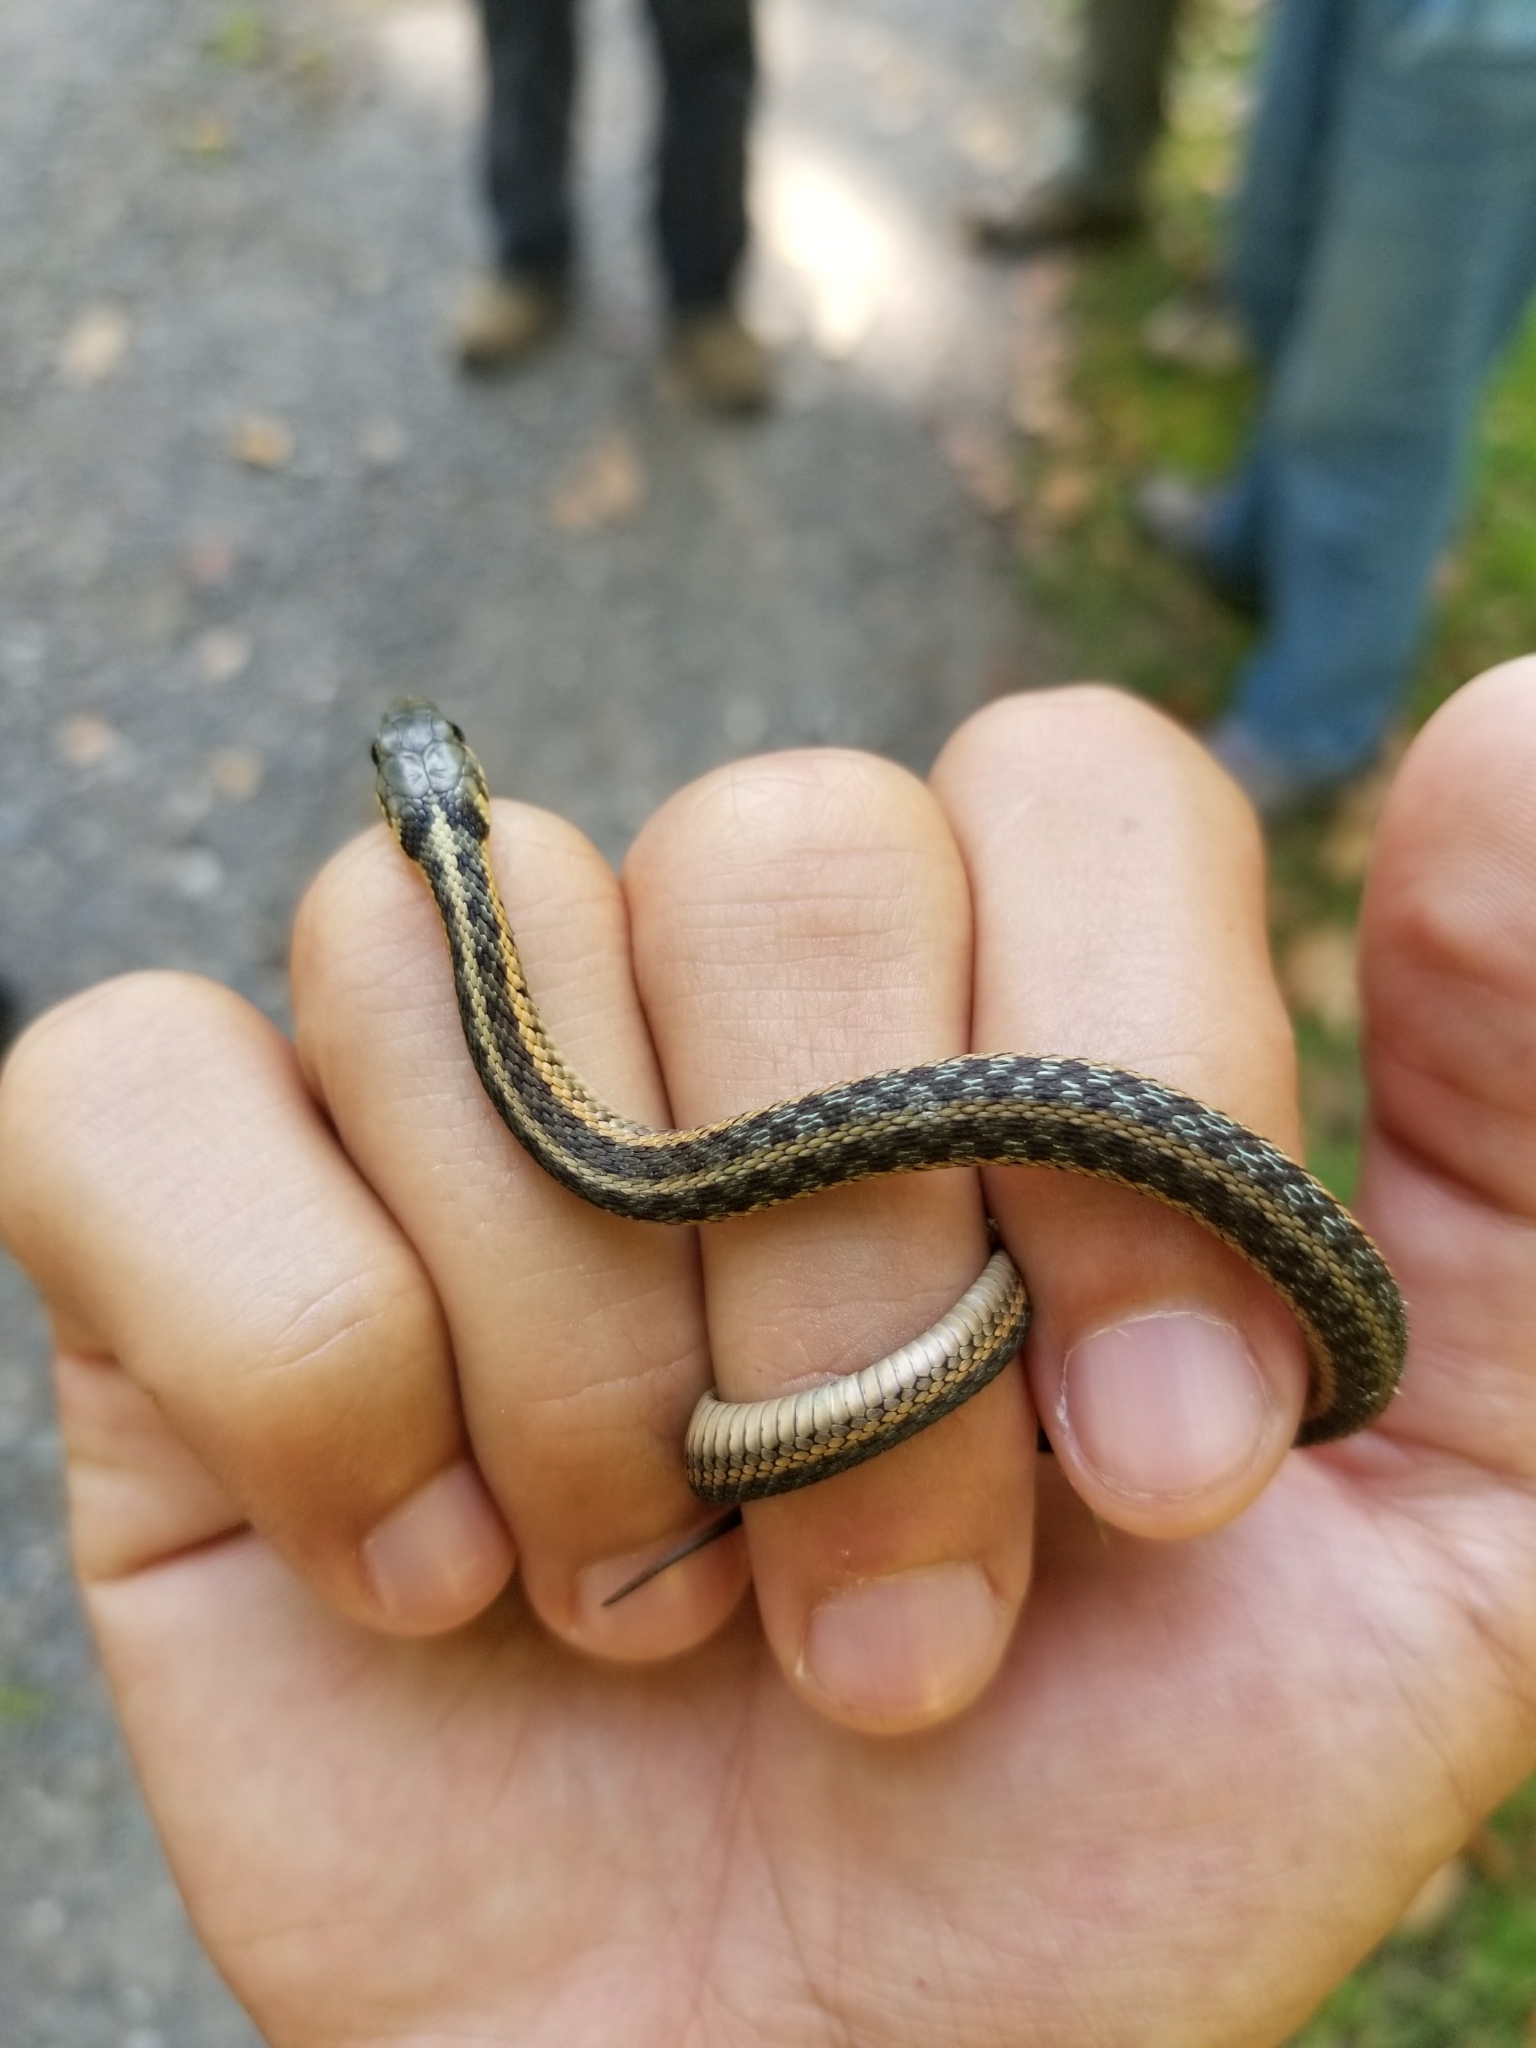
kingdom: Animalia
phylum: Chordata
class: Squamata
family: Colubridae
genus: Thamnophis
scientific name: Thamnophis sirtalis
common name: Common garter snake
